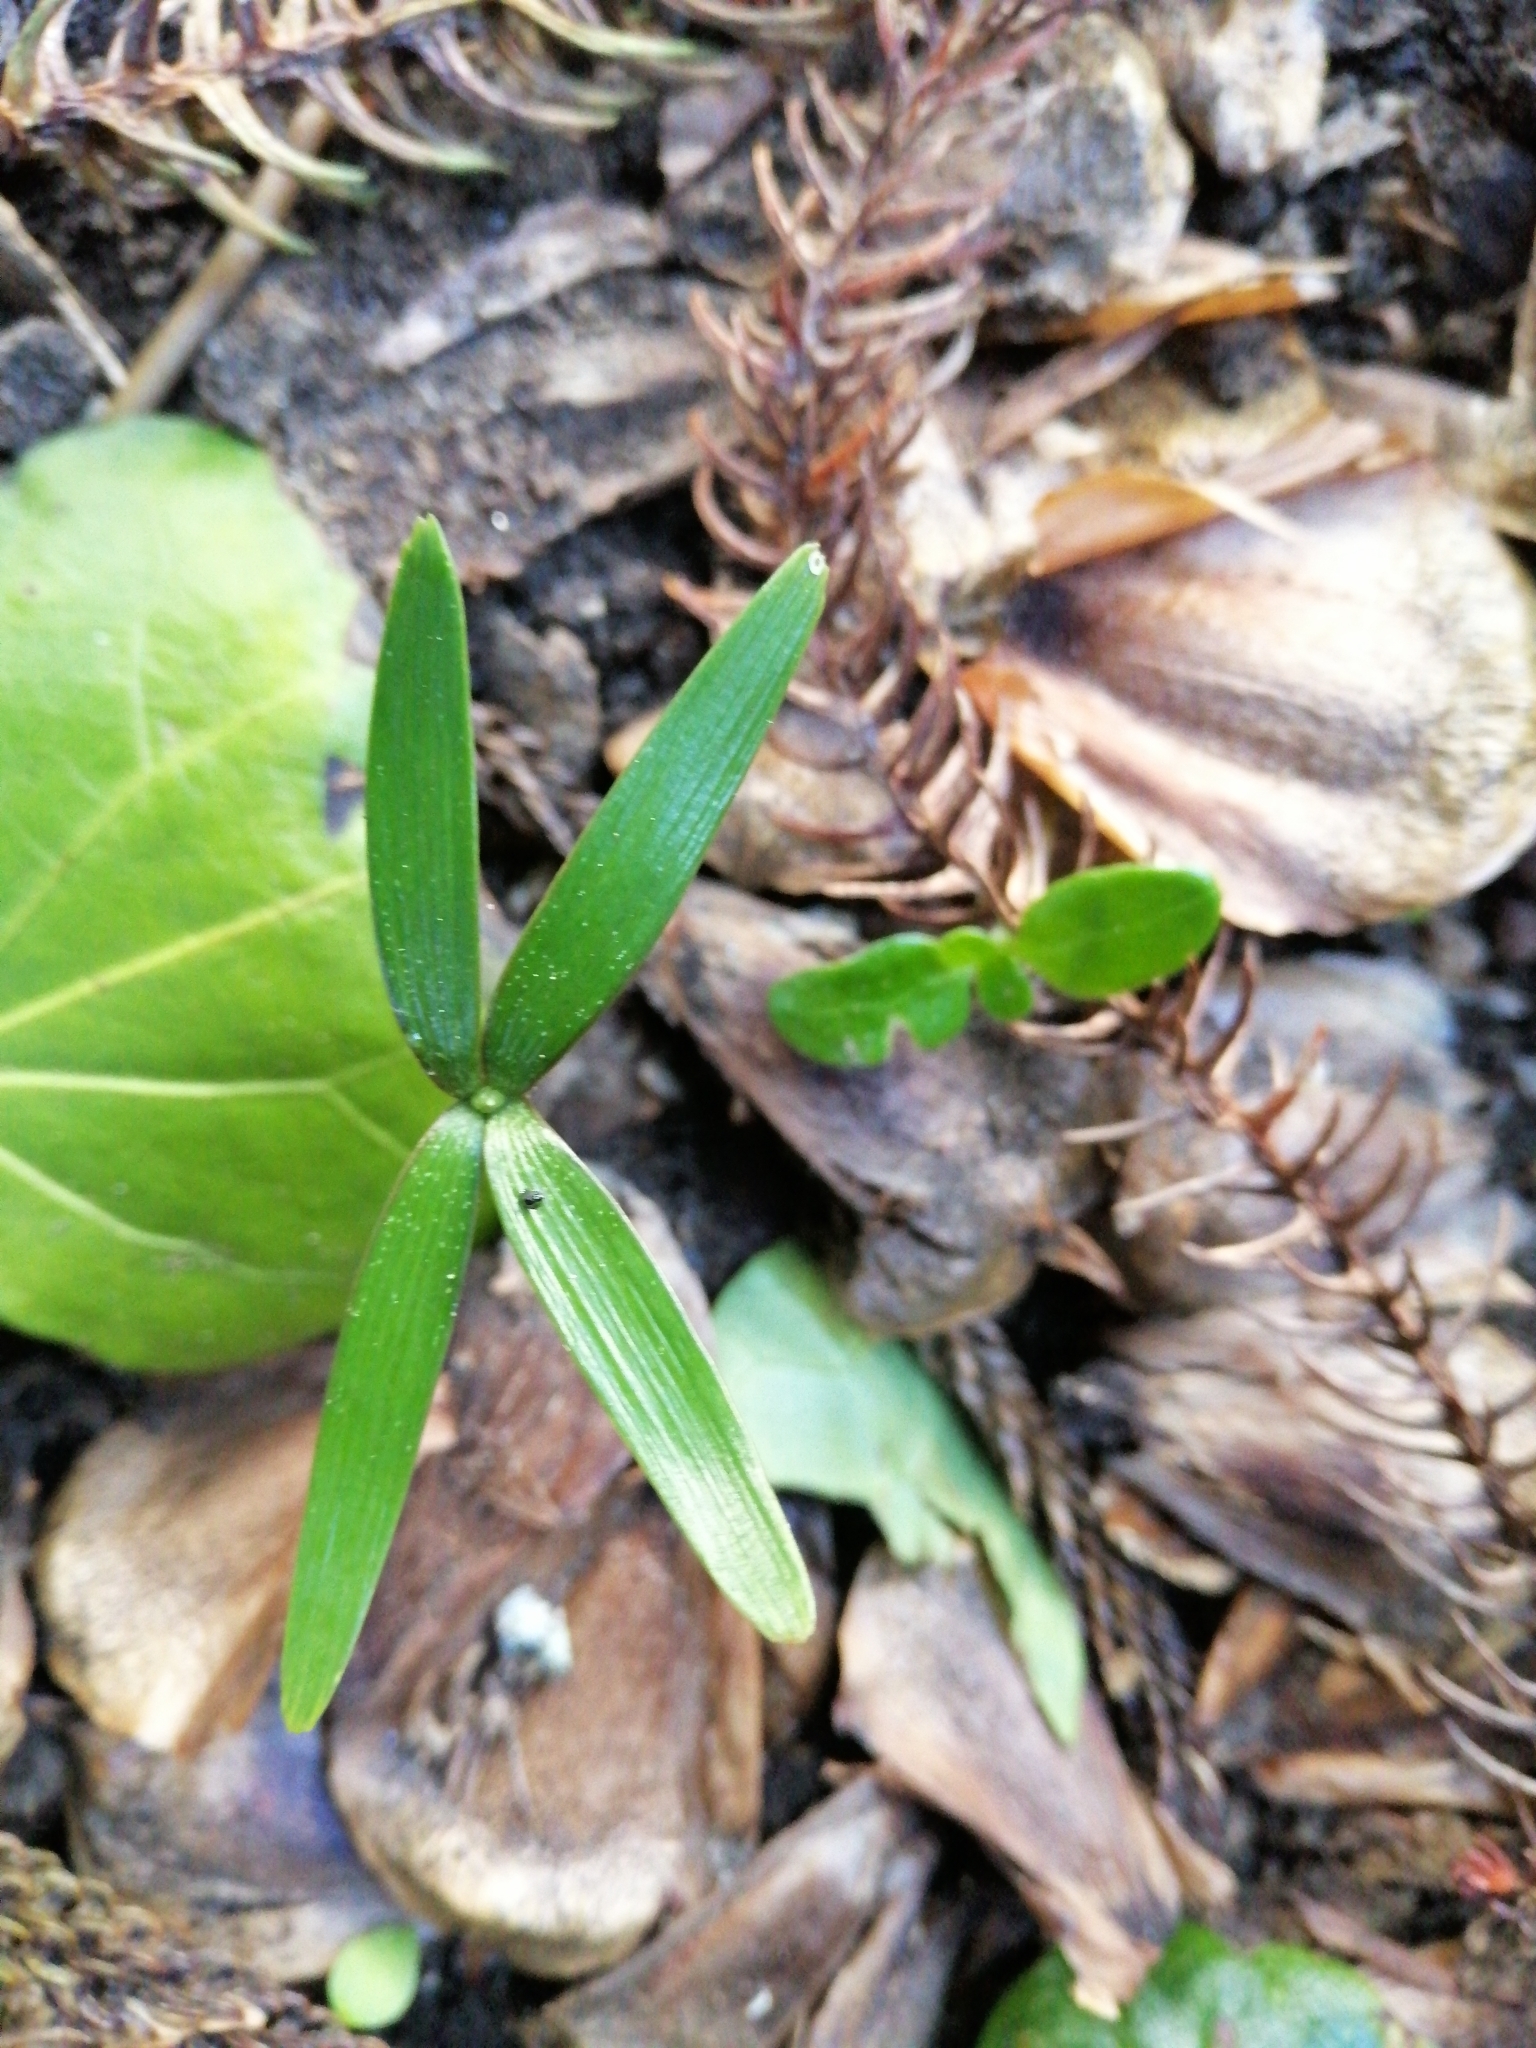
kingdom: Plantae
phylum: Tracheophyta
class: Pinopsida
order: Pinales
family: Araucariaceae
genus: Araucaria
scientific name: Araucaria heterophylla
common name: Norfolk island pine
